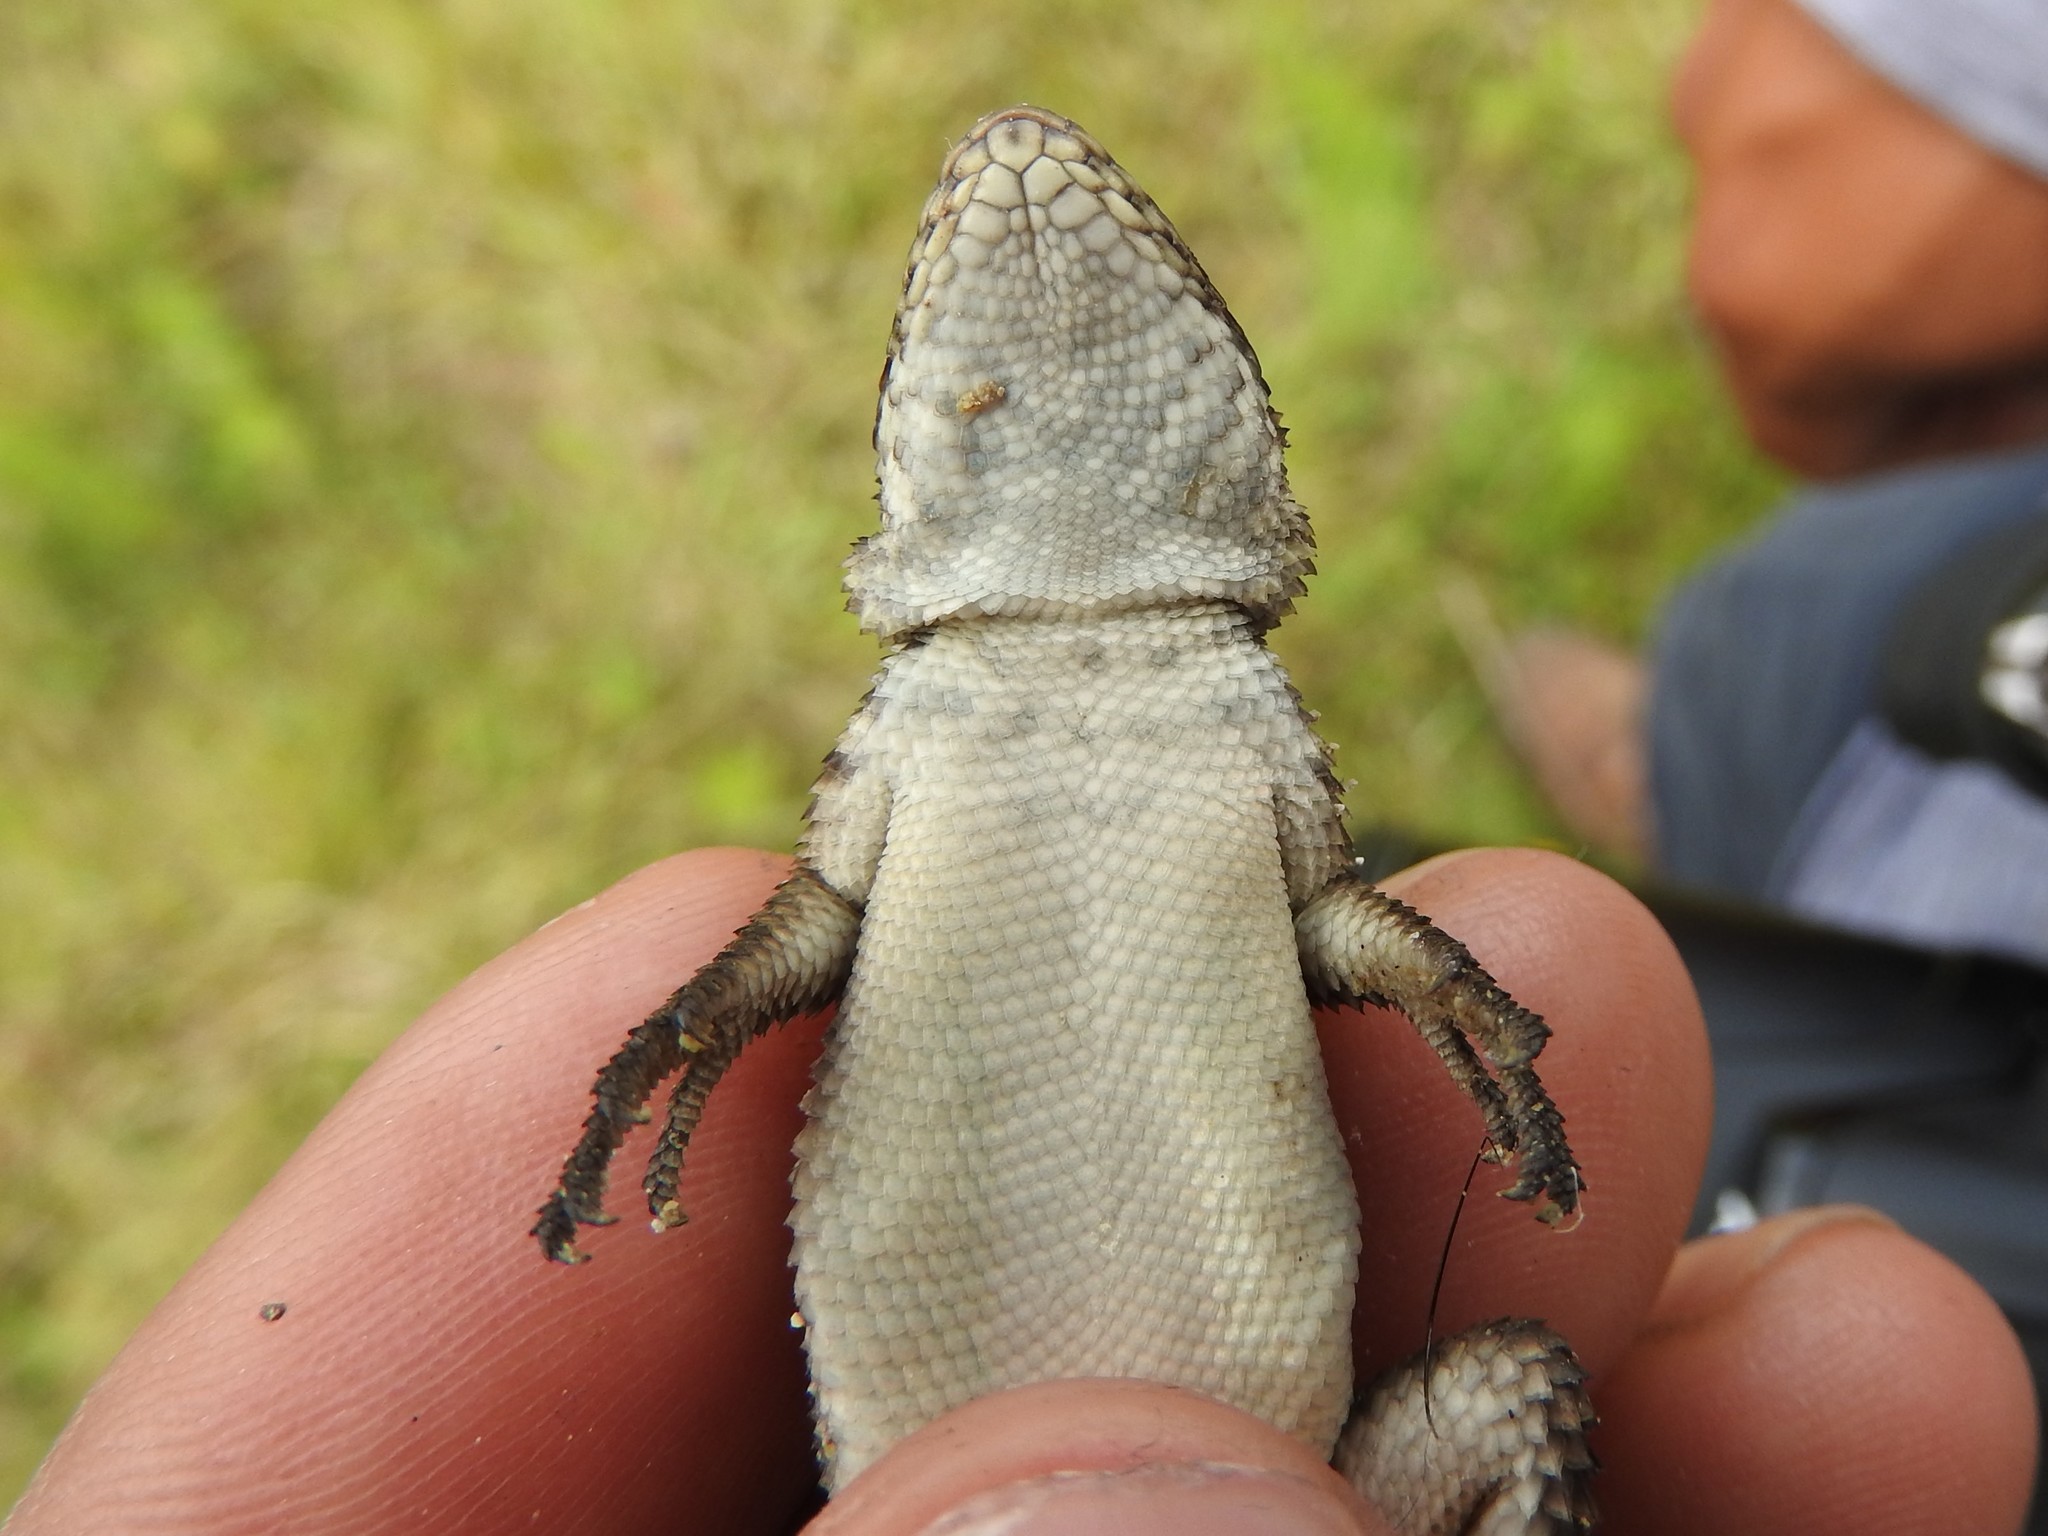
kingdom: Animalia
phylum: Chordata
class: Squamata
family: Phrynosomatidae
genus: Sceloporus
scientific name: Sceloporus dugesii
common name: Duges' spiny lizard
